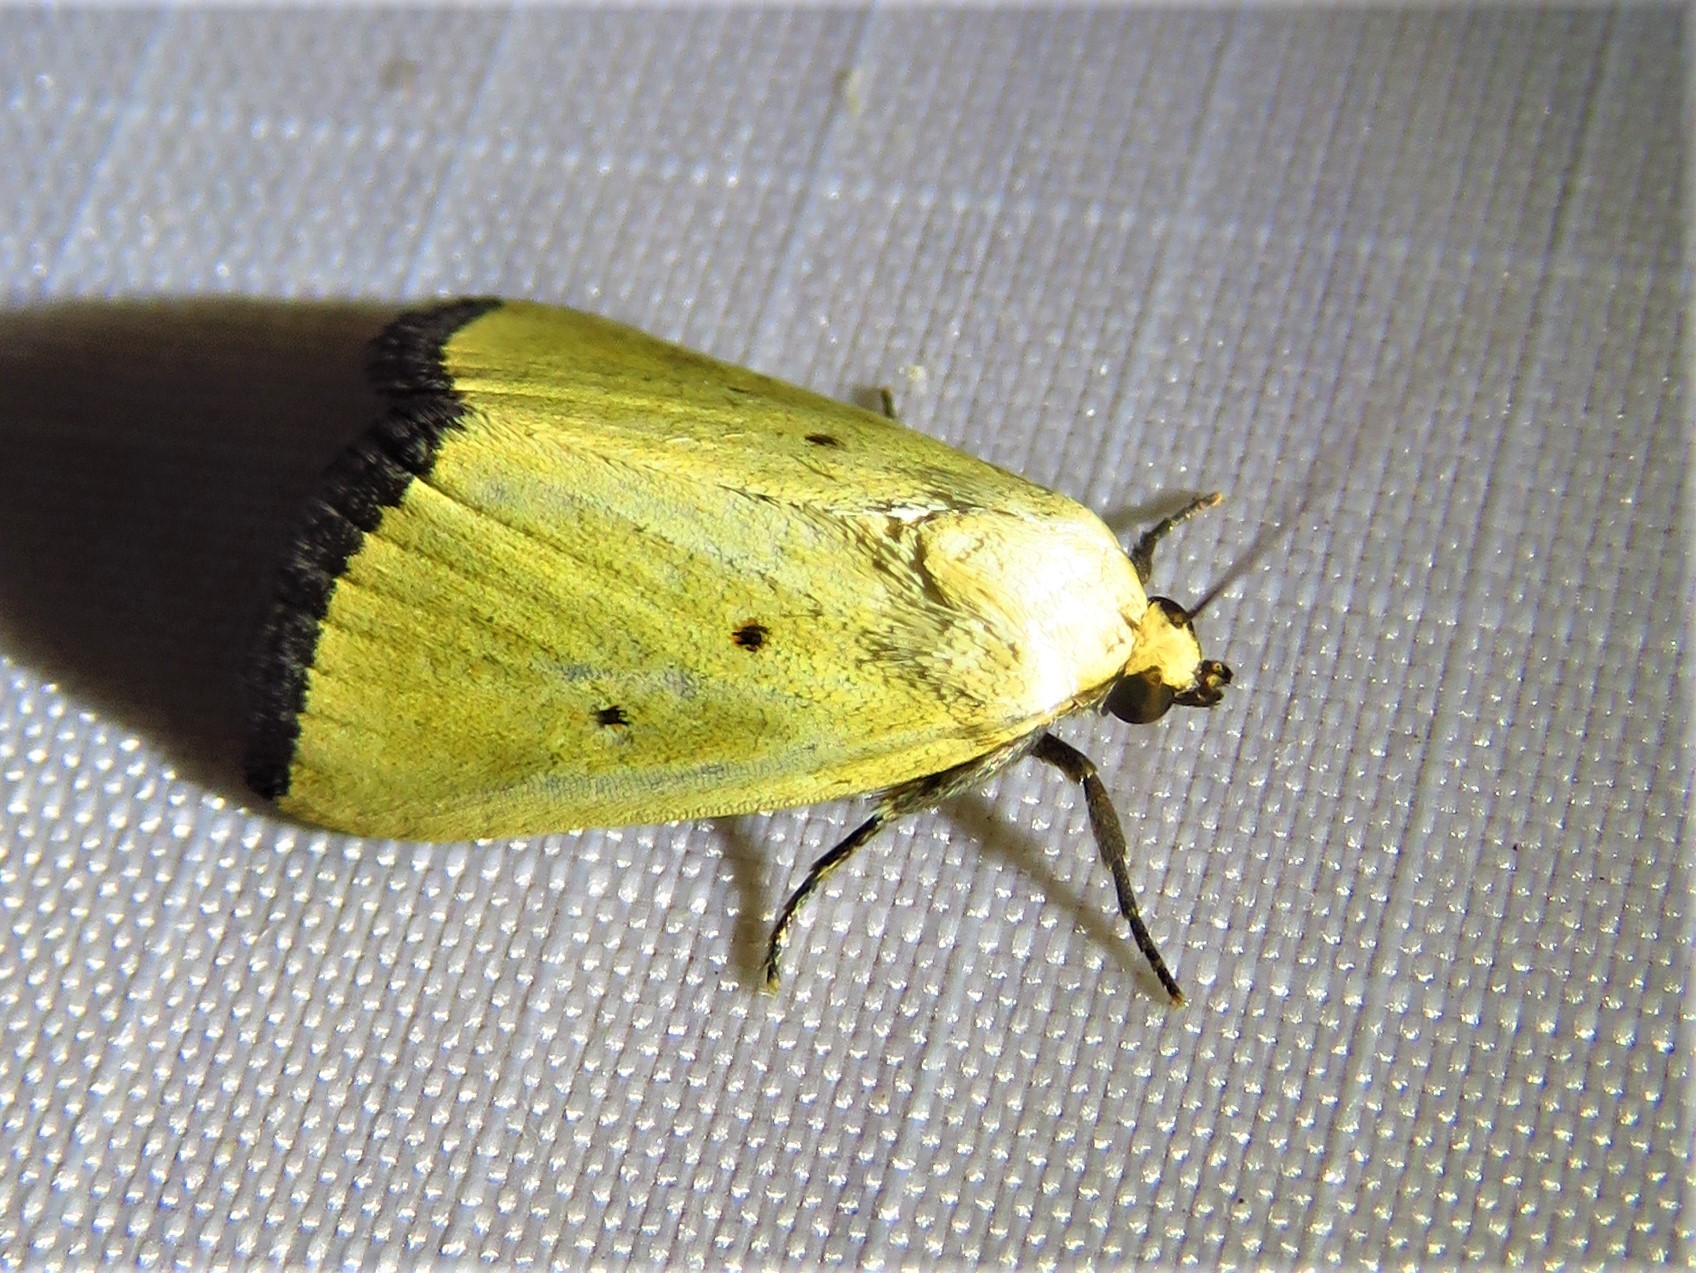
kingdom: Animalia
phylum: Arthropoda
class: Insecta
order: Lepidoptera
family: Noctuidae
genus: Marimatha
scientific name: Marimatha nigrofimbria
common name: Black-bordered lemon moth
